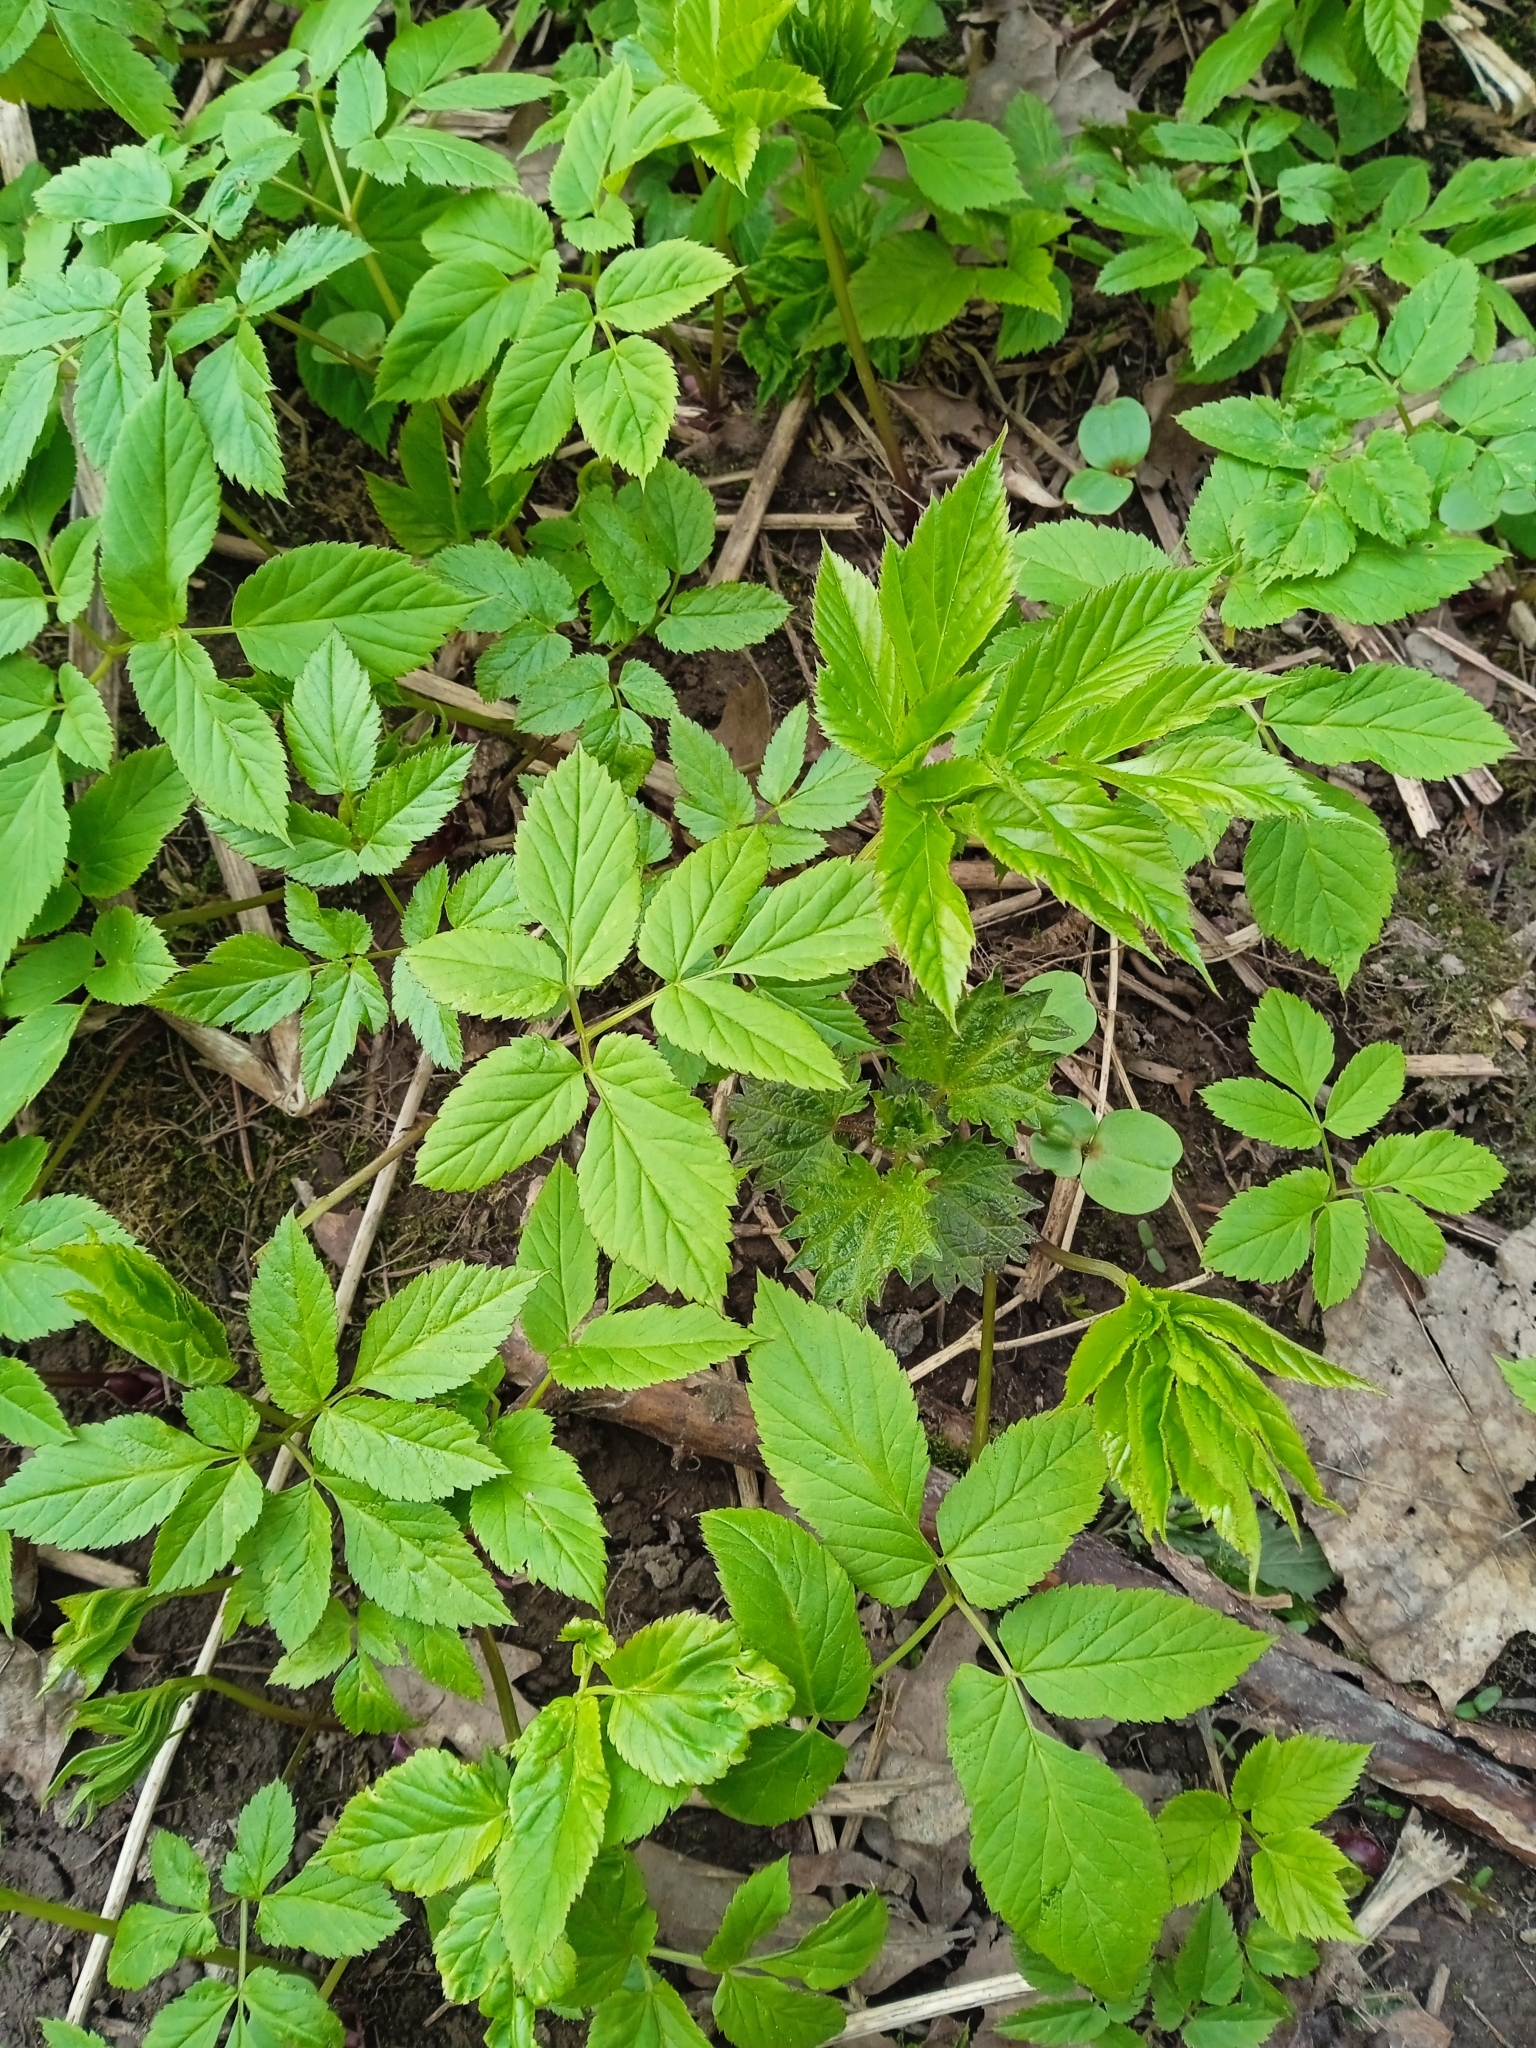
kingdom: Plantae
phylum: Tracheophyta
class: Magnoliopsida
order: Apiales
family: Apiaceae
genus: Aegopodium
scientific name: Aegopodium podagraria
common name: Ground-elder
